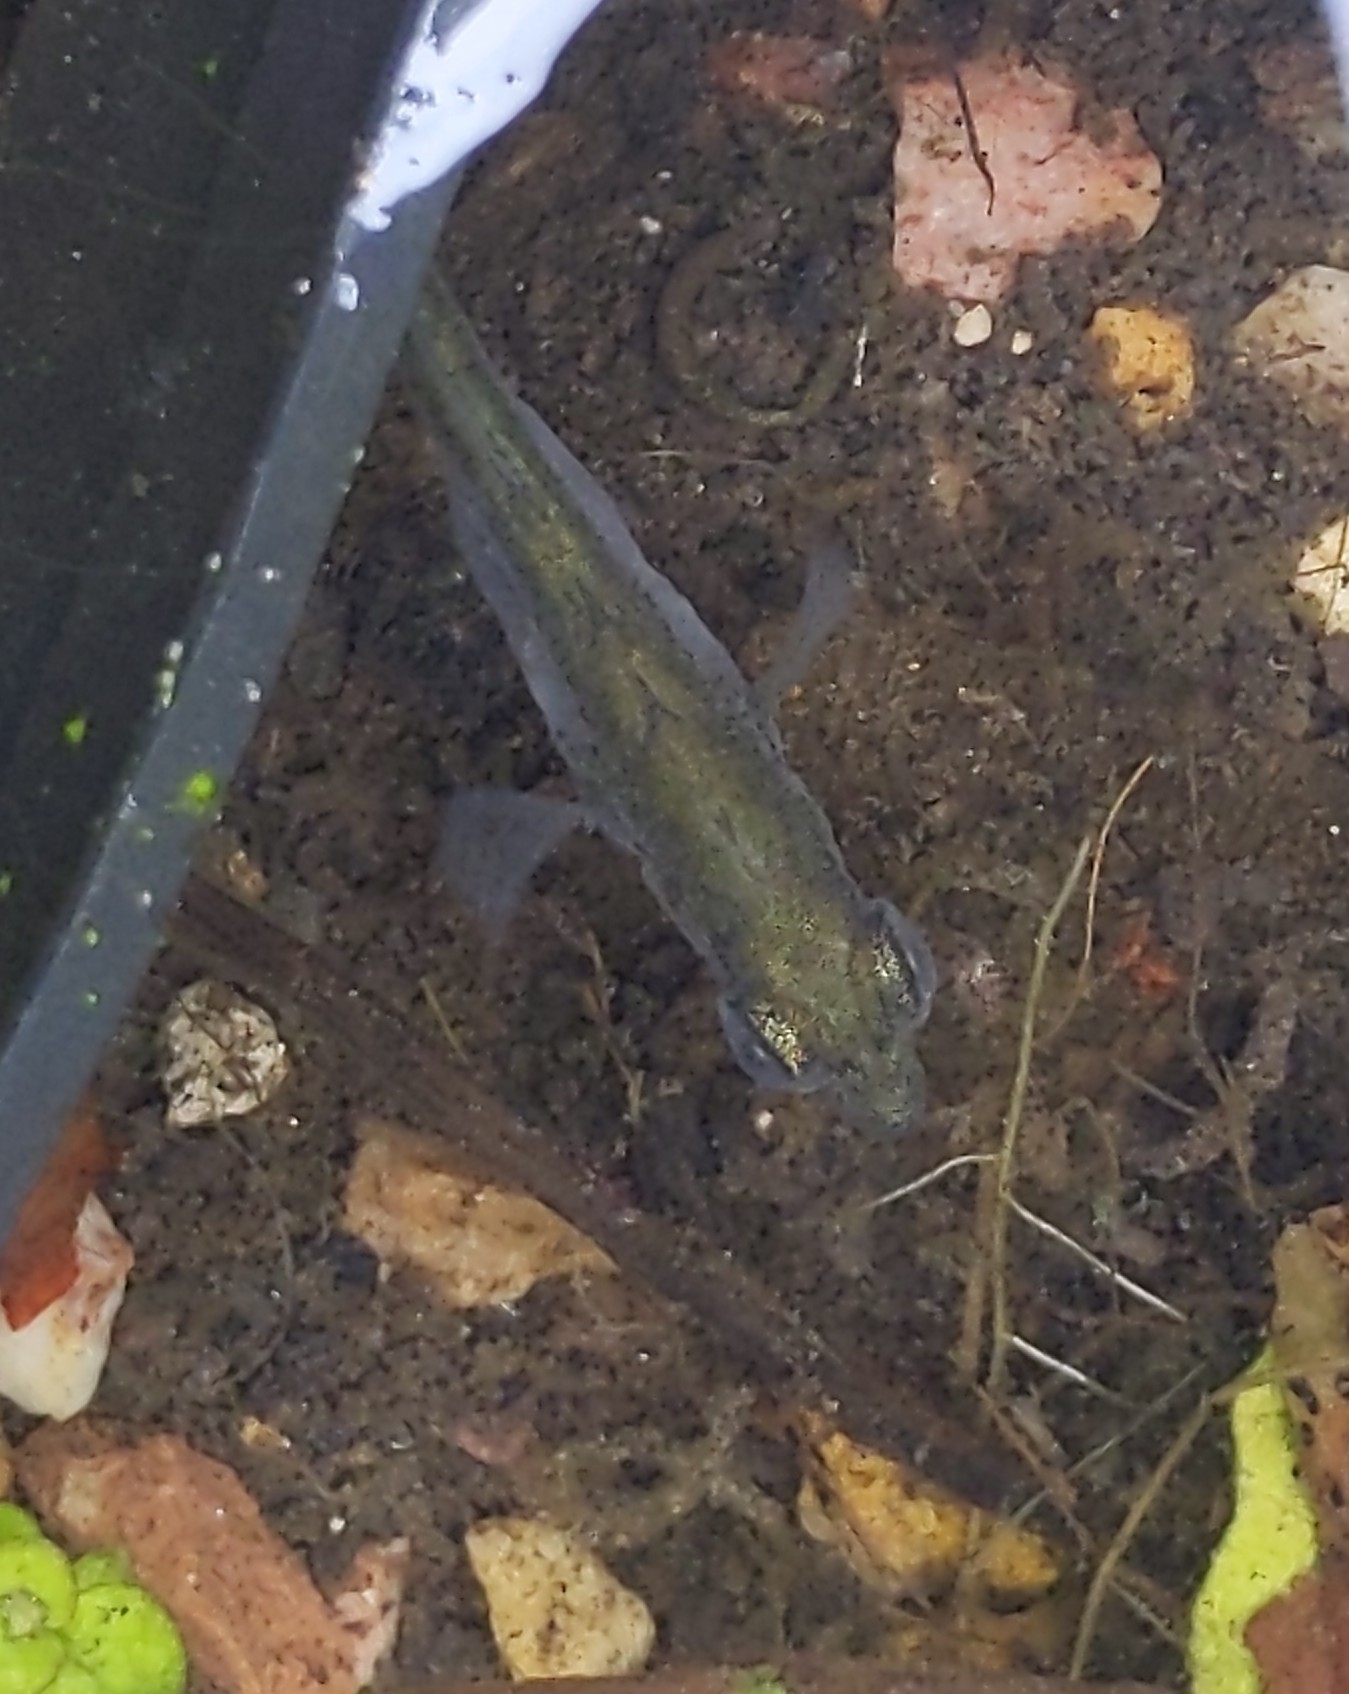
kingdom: Animalia
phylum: Chordata
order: Gasterosteiformes
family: Gasterosteidae
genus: Gasterosteus
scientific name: Gasterosteus aculeatus
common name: Three-spined stickleback
